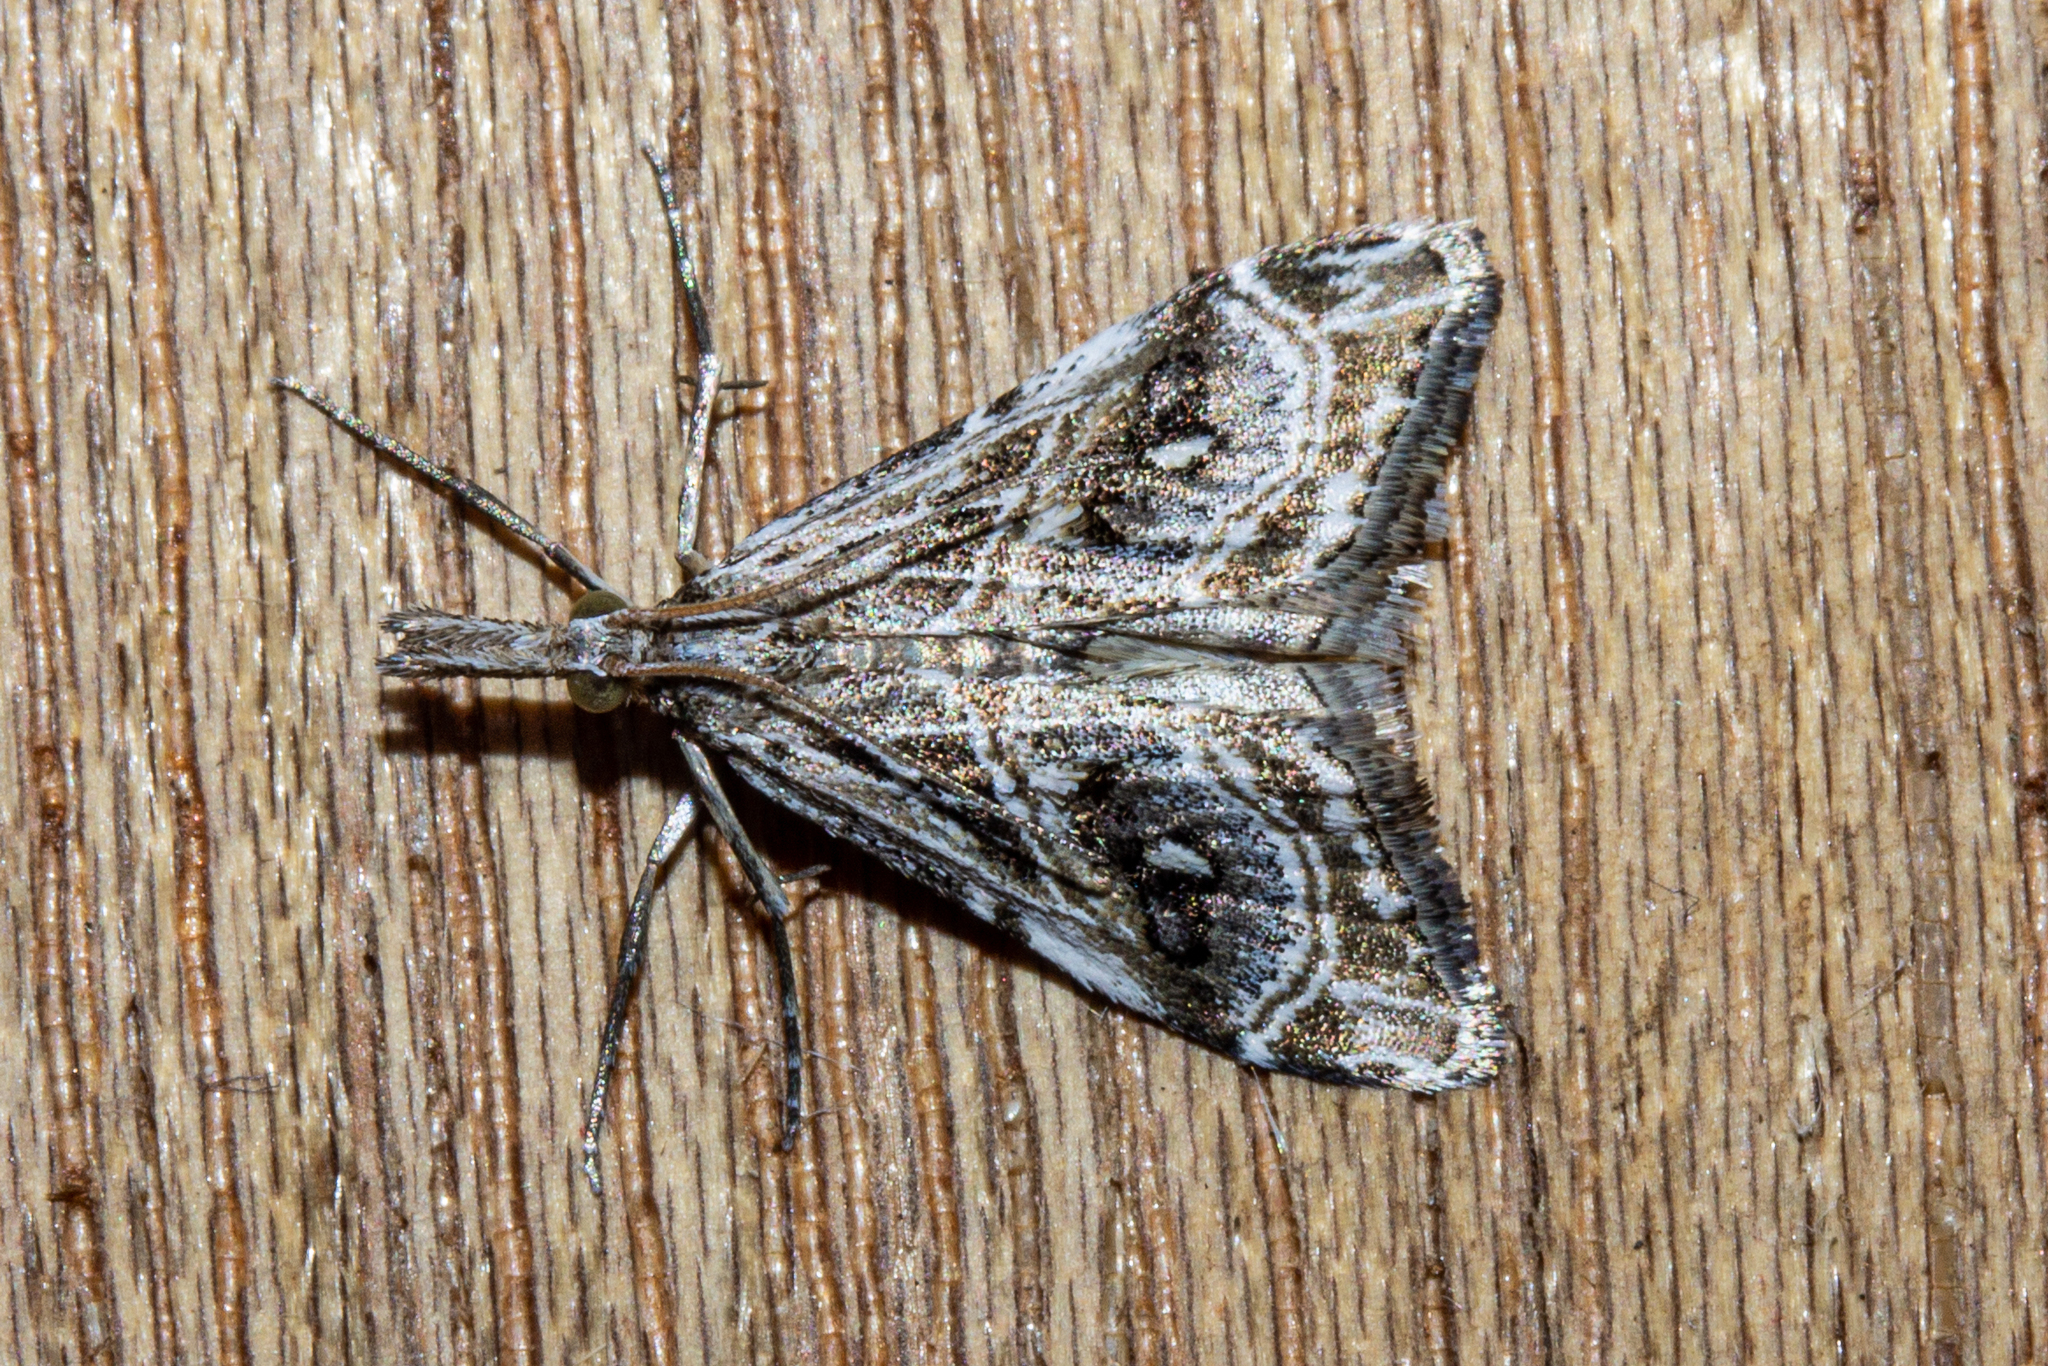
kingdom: Animalia
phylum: Arthropoda
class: Insecta
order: Lepidoptera
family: Crambidae
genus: Gadira
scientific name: Gadira acerella
